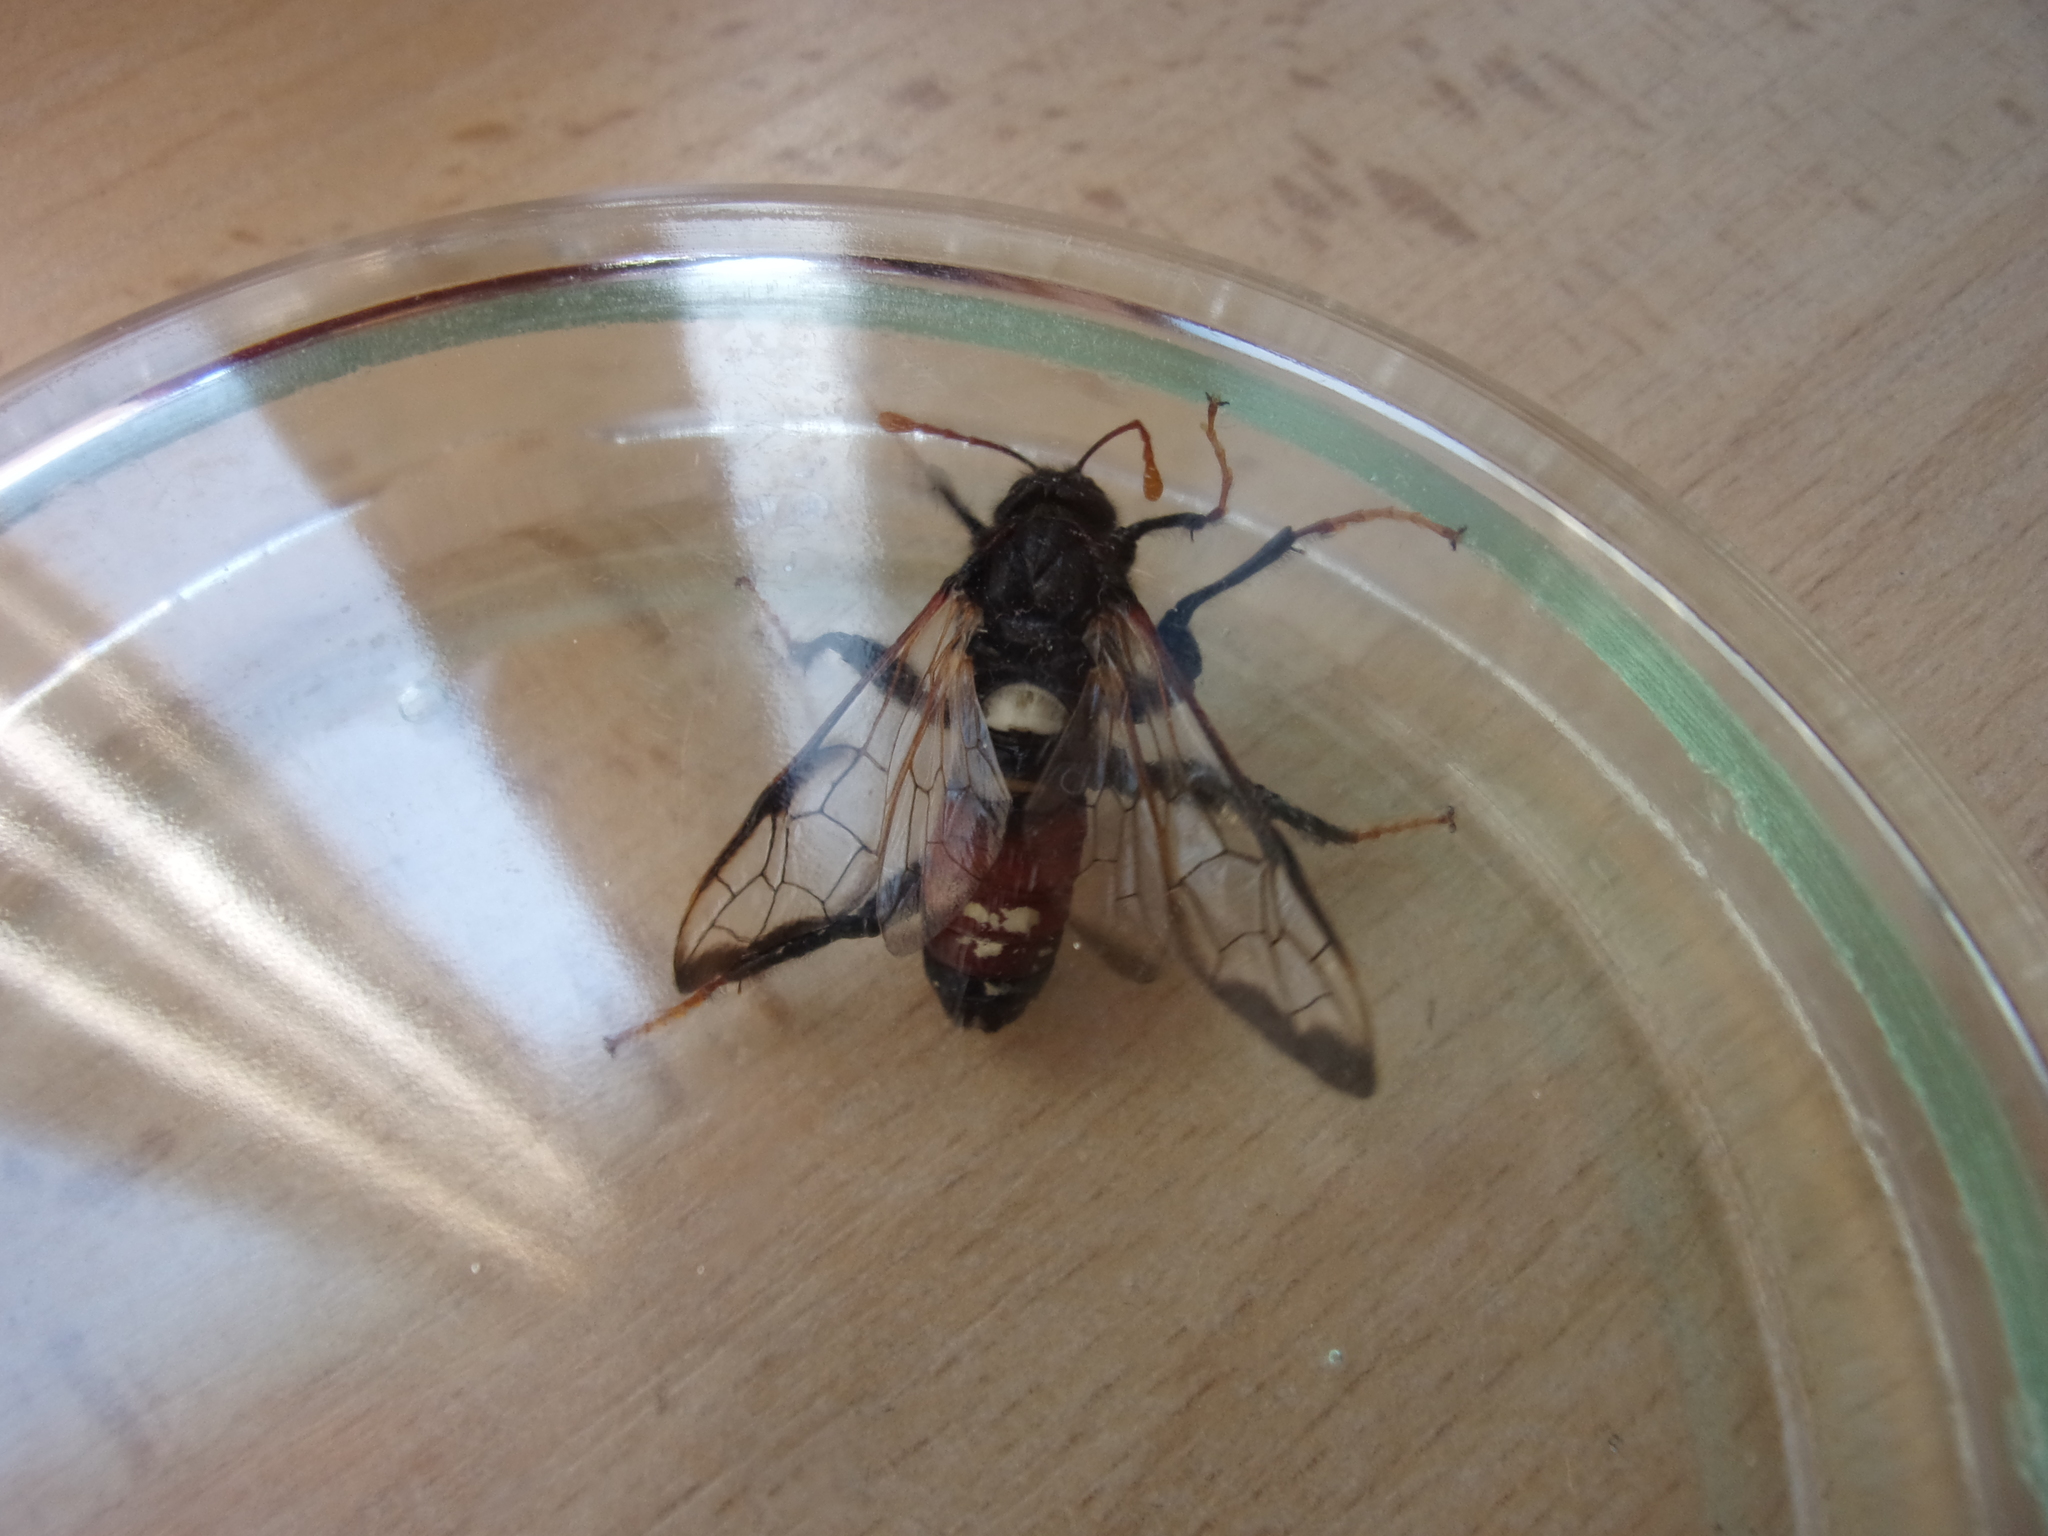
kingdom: Animalia
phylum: Arthropoda
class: Insecta
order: Hymenoptera
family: Cimbicidae
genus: Cimbex
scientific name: Cimbex femoratus
